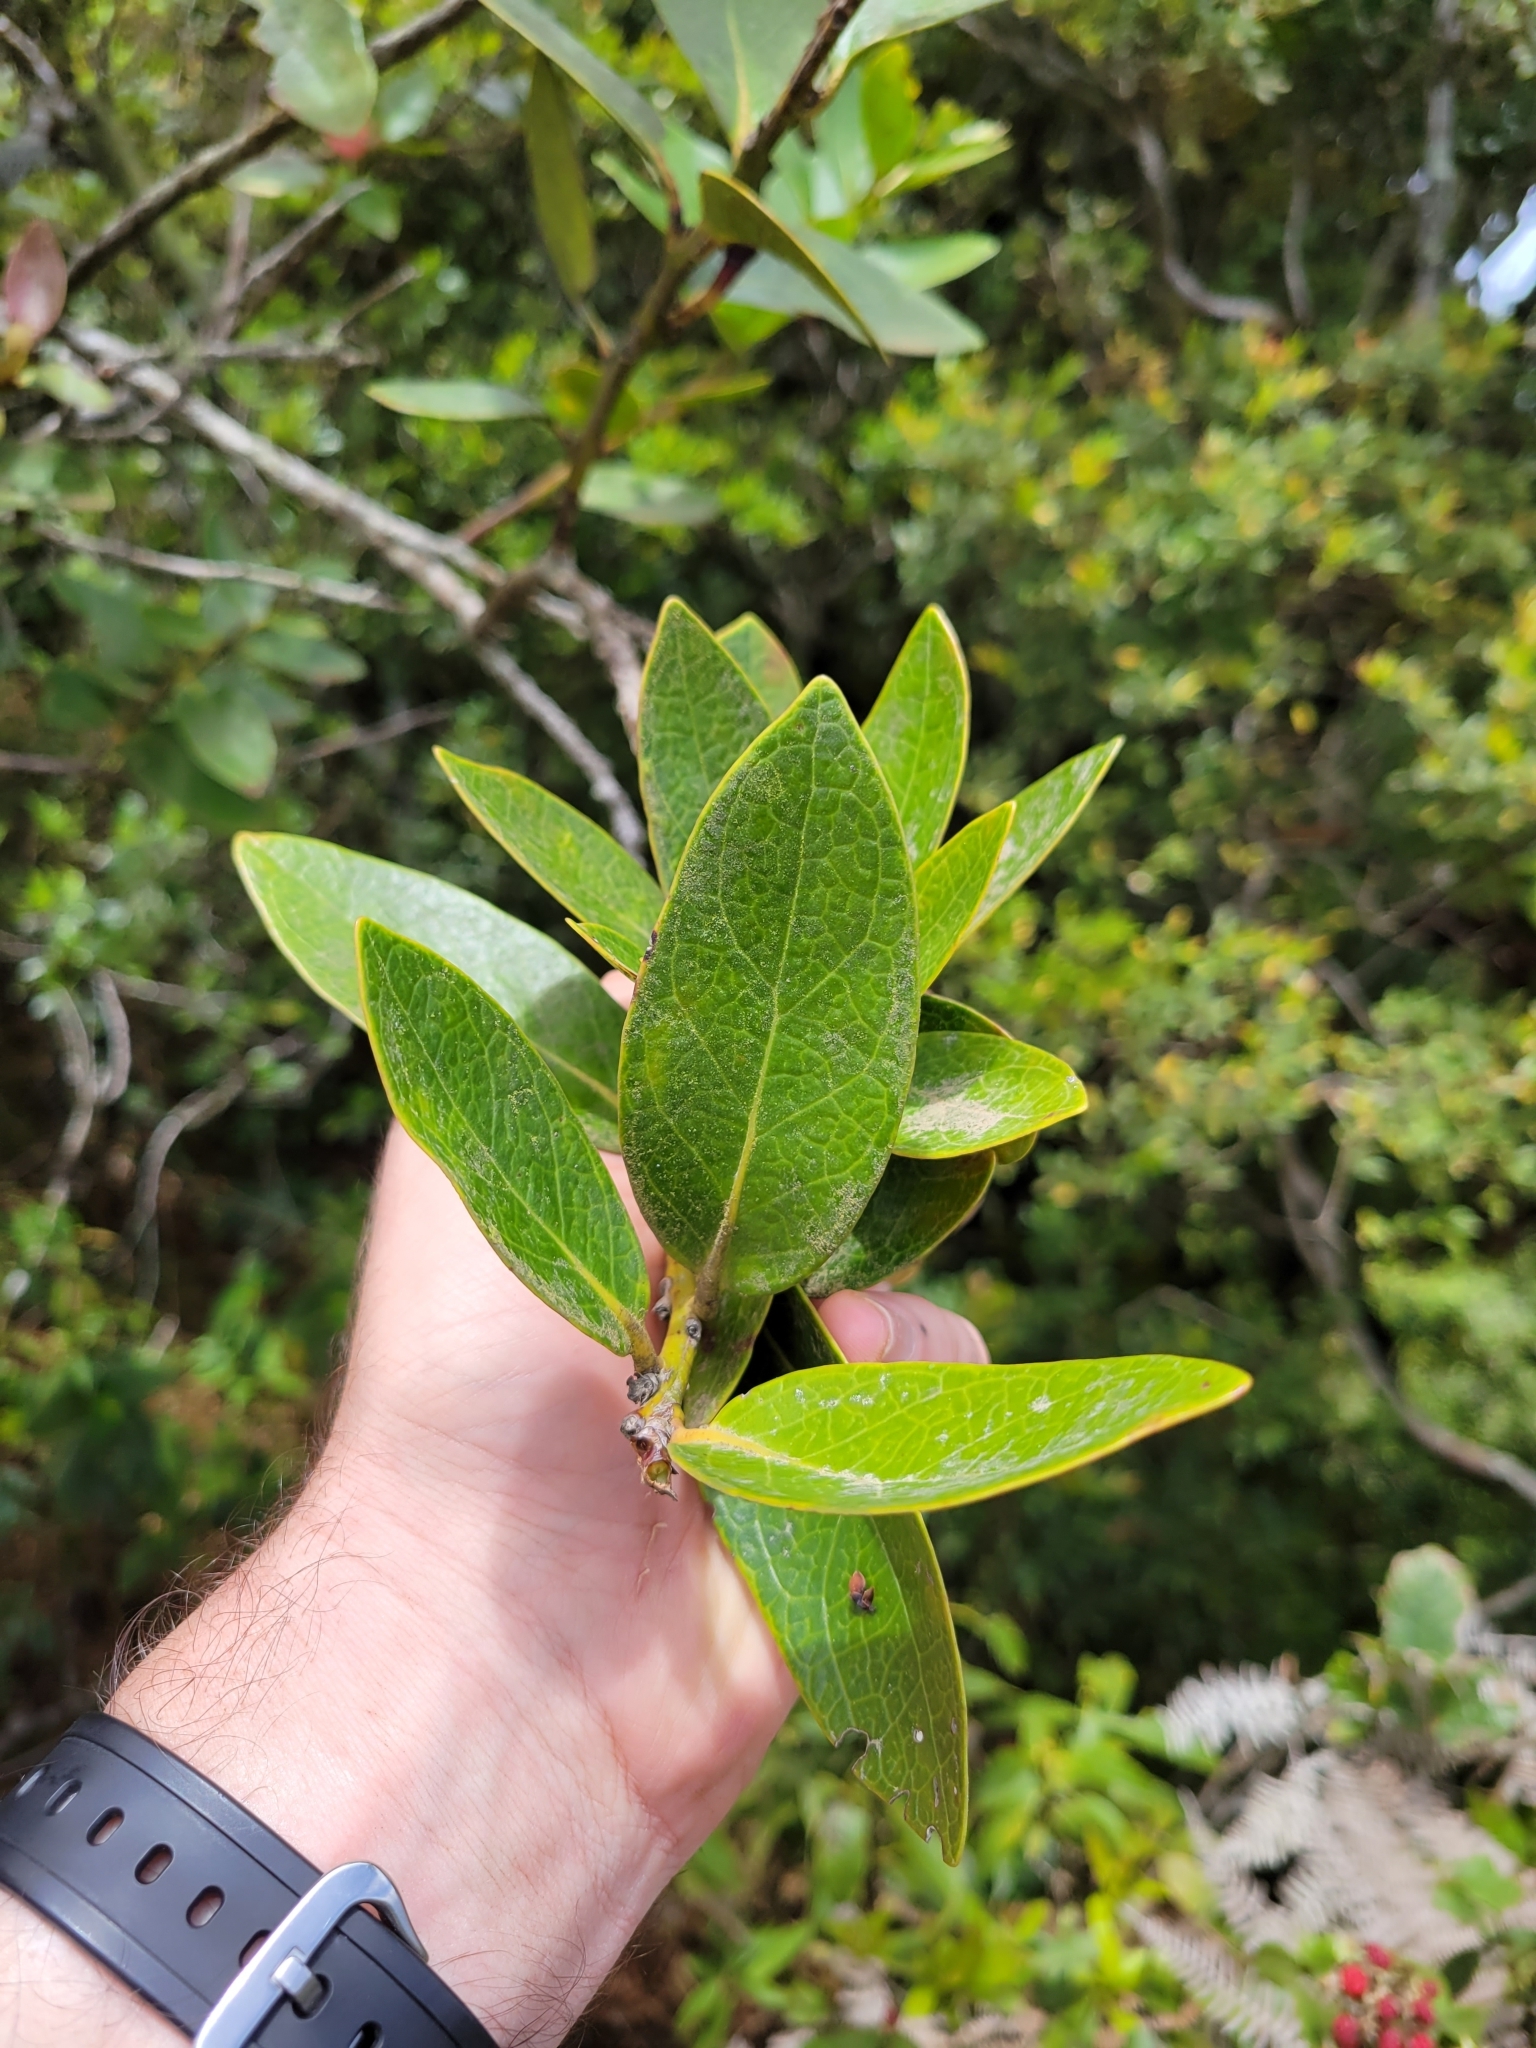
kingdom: Plantae
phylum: Tracheophyta
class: Magnoliopsida
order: Ericales
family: Ericaceae
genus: Macleania
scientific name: Macleania rupestris
